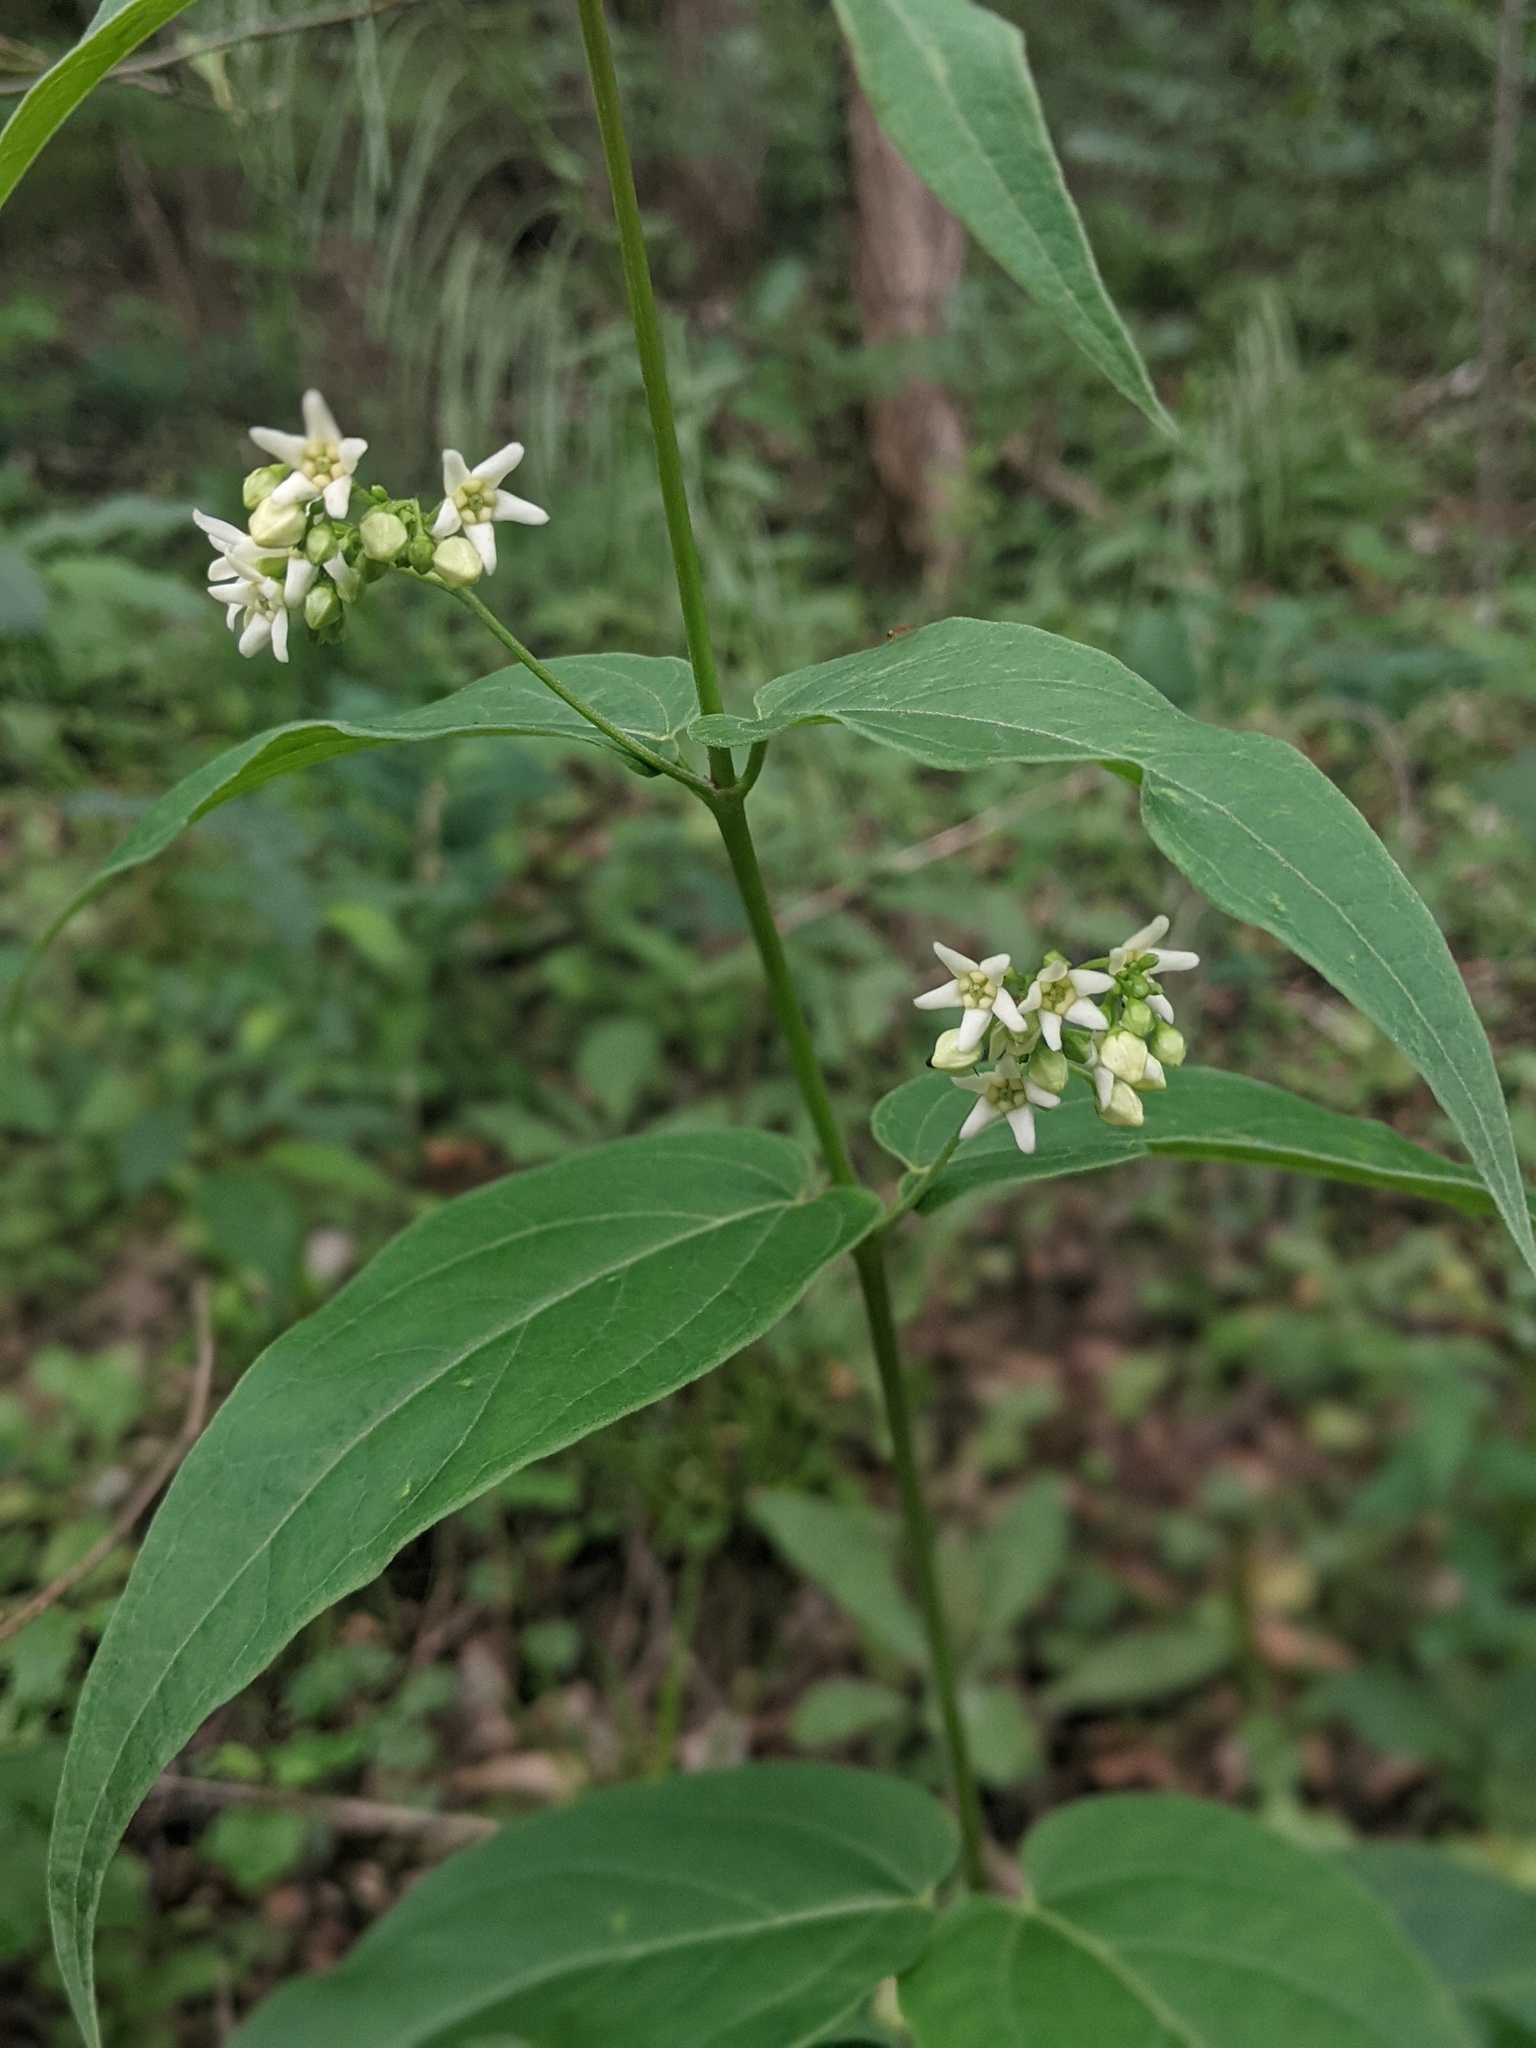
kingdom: Plantae
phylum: Tracheophyta
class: Magnoliopsida
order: Gentianales
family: Apocynaceae
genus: Vincetoxicum
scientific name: Vincetoxicum hirundinaria
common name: White swallowwort
